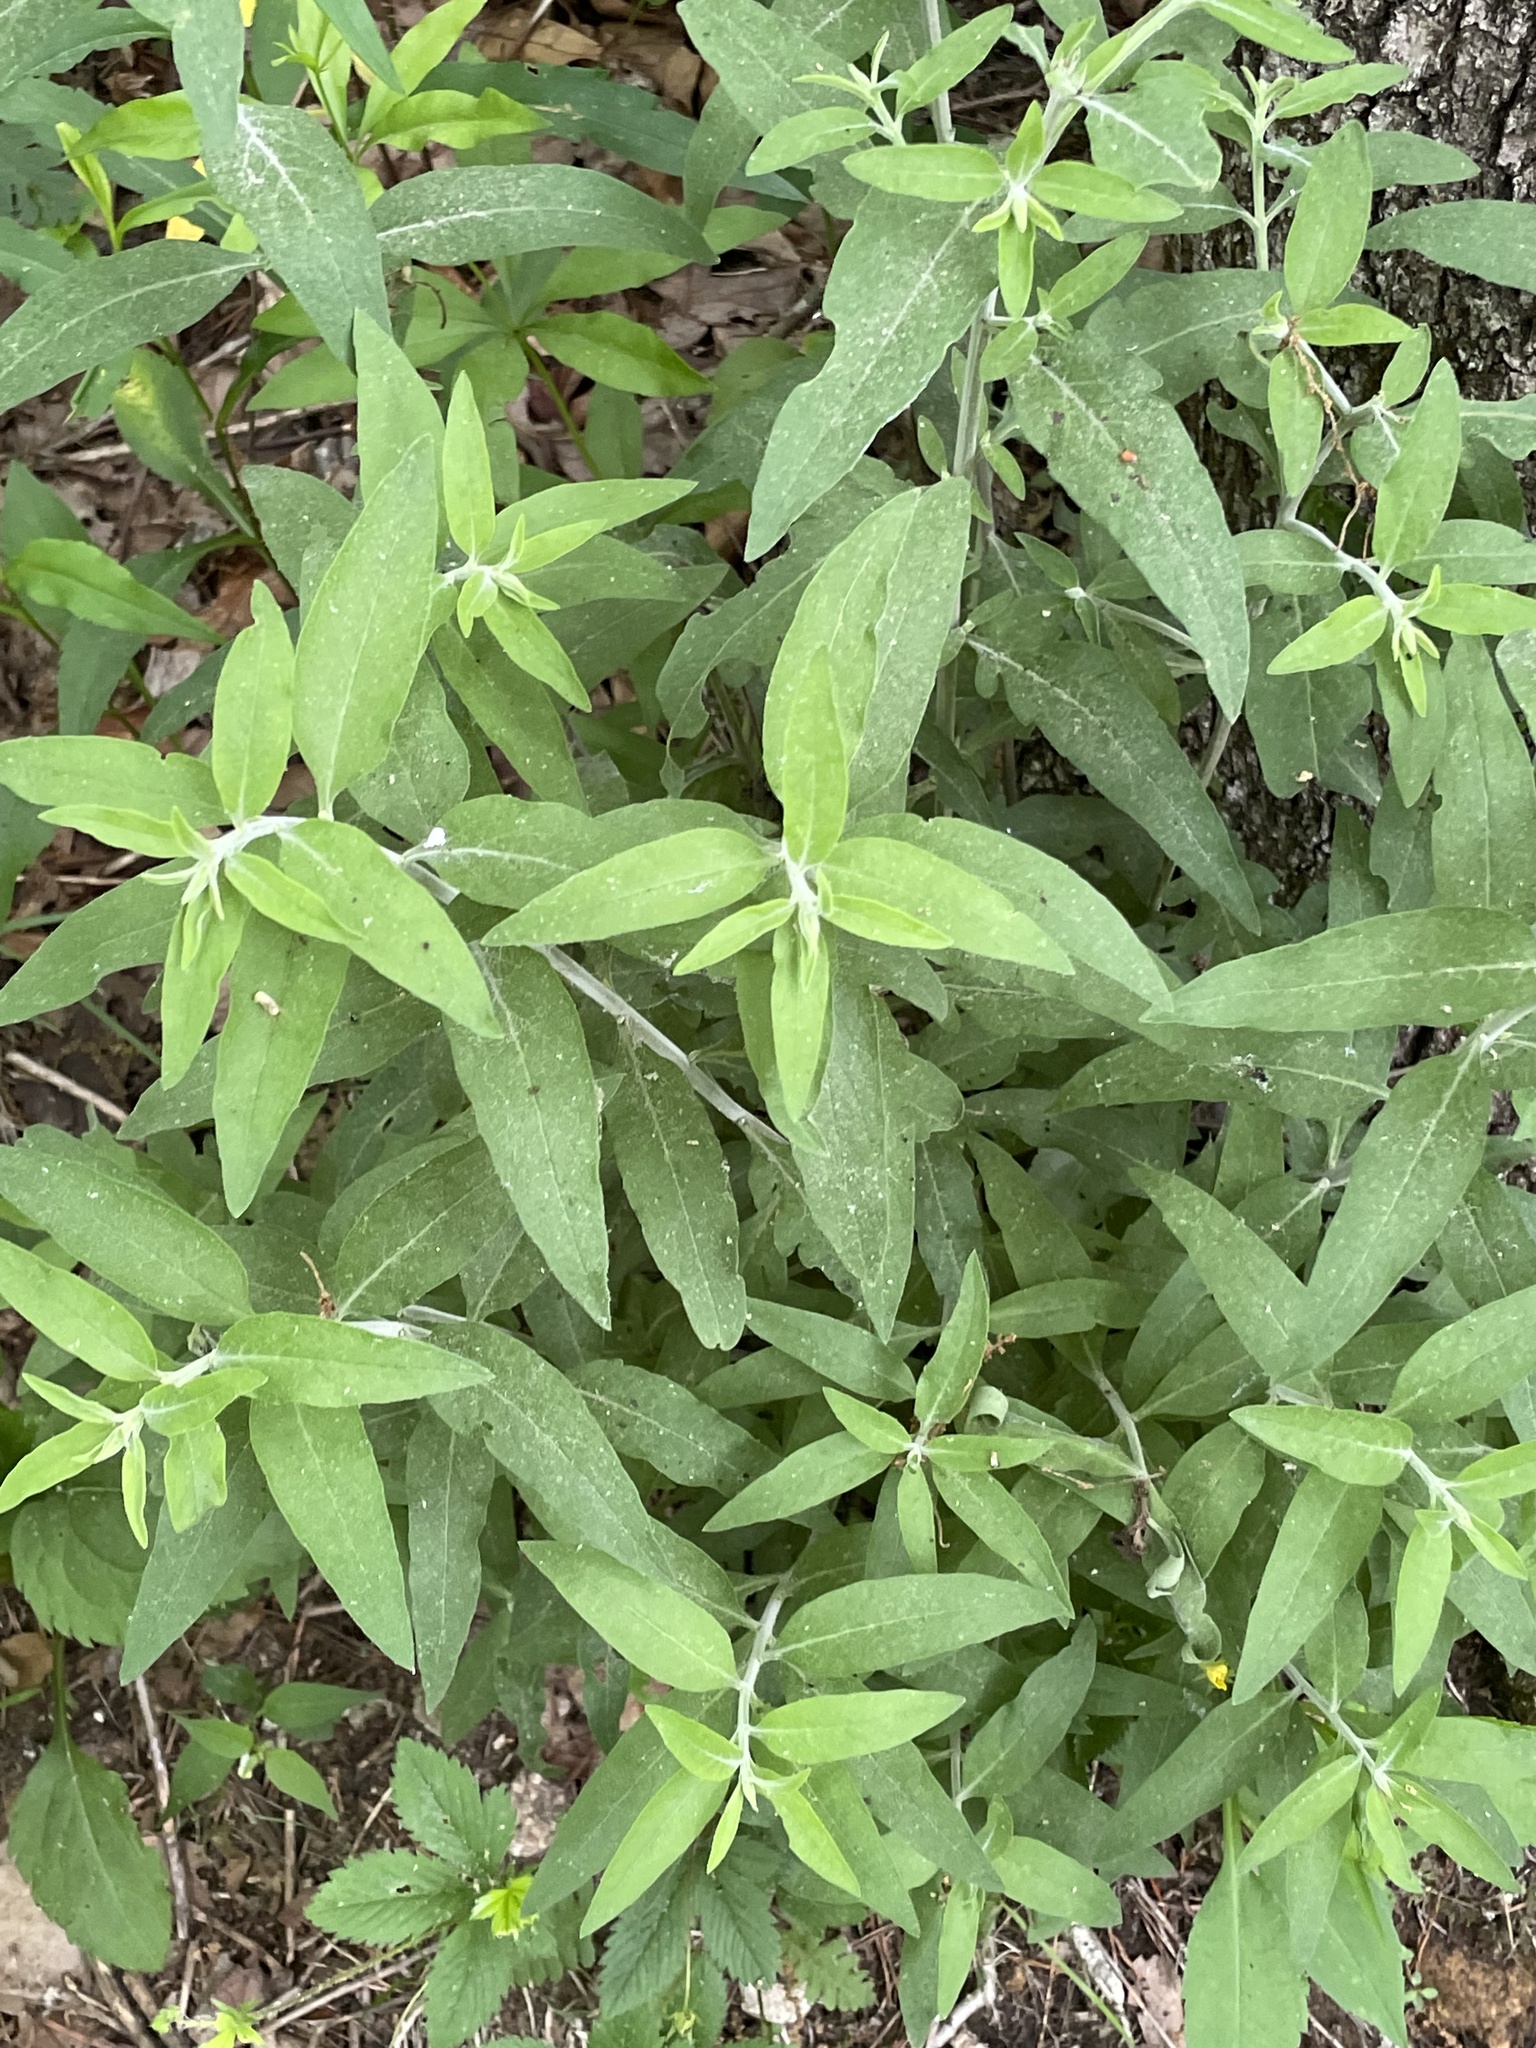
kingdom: Plantae
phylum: Tracheophyta
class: Magnoliopsida
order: Lamiales
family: Orobanchaceae
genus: Aureolaria
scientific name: Aureolaria virginica
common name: Downy false foxglove
